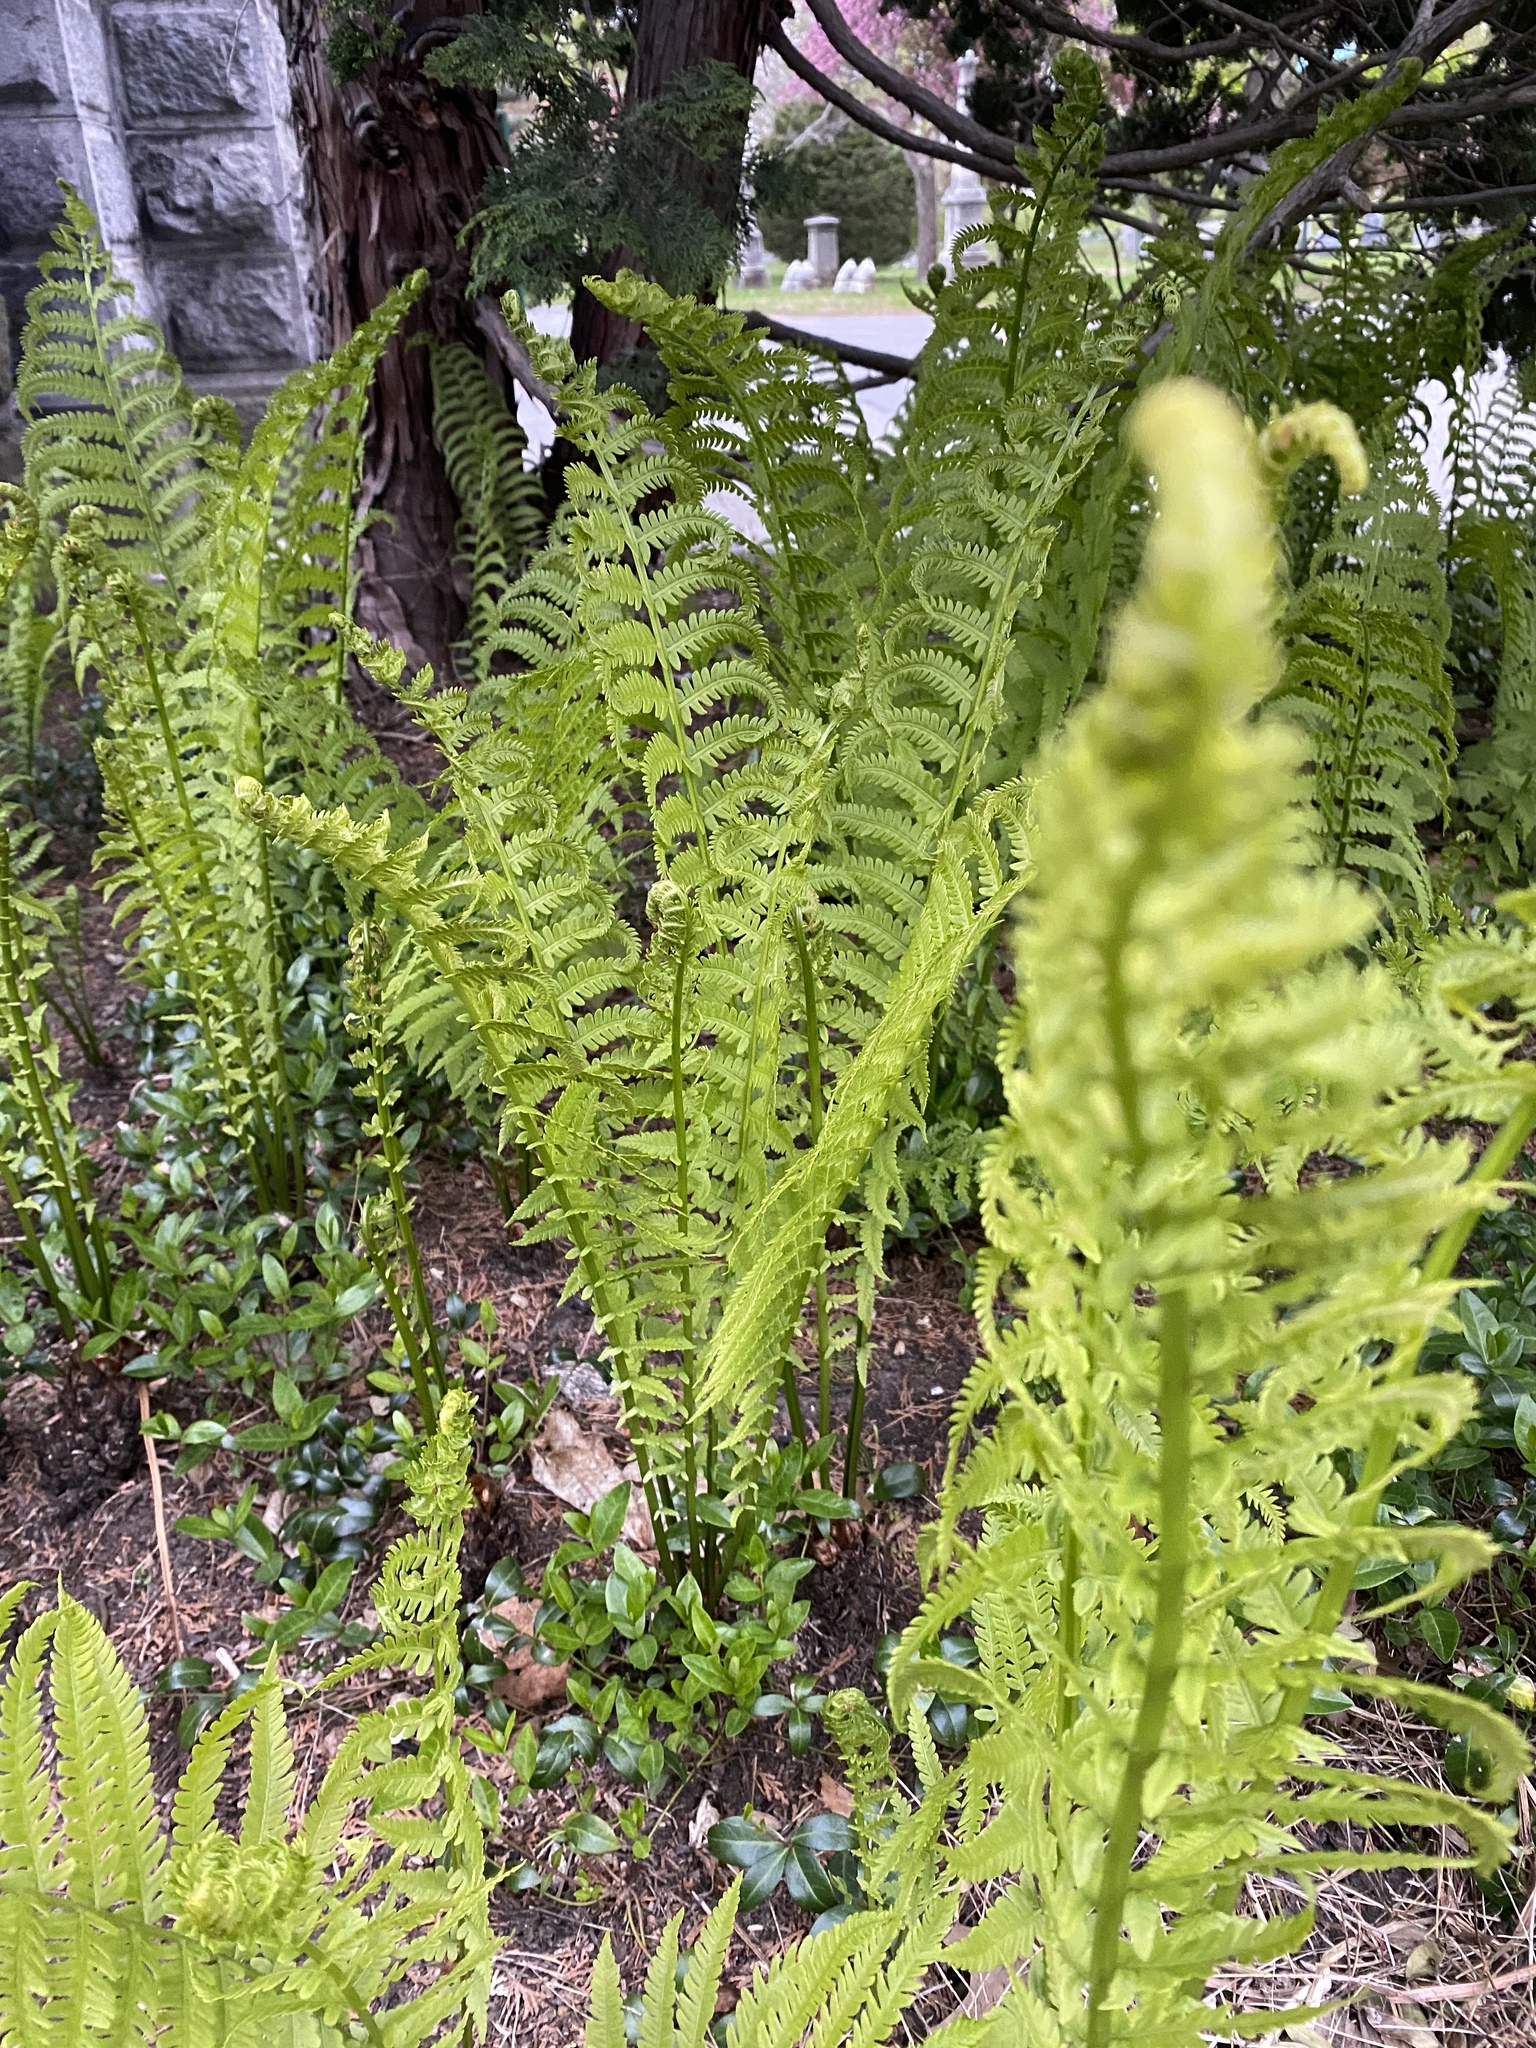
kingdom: Plantae
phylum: Tracheophyta
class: Polypodiopsida
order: Polypodiales
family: Onocleaceae
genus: Matteuccia
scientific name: Matteuccia struthiopteris
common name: Ostrich fern
